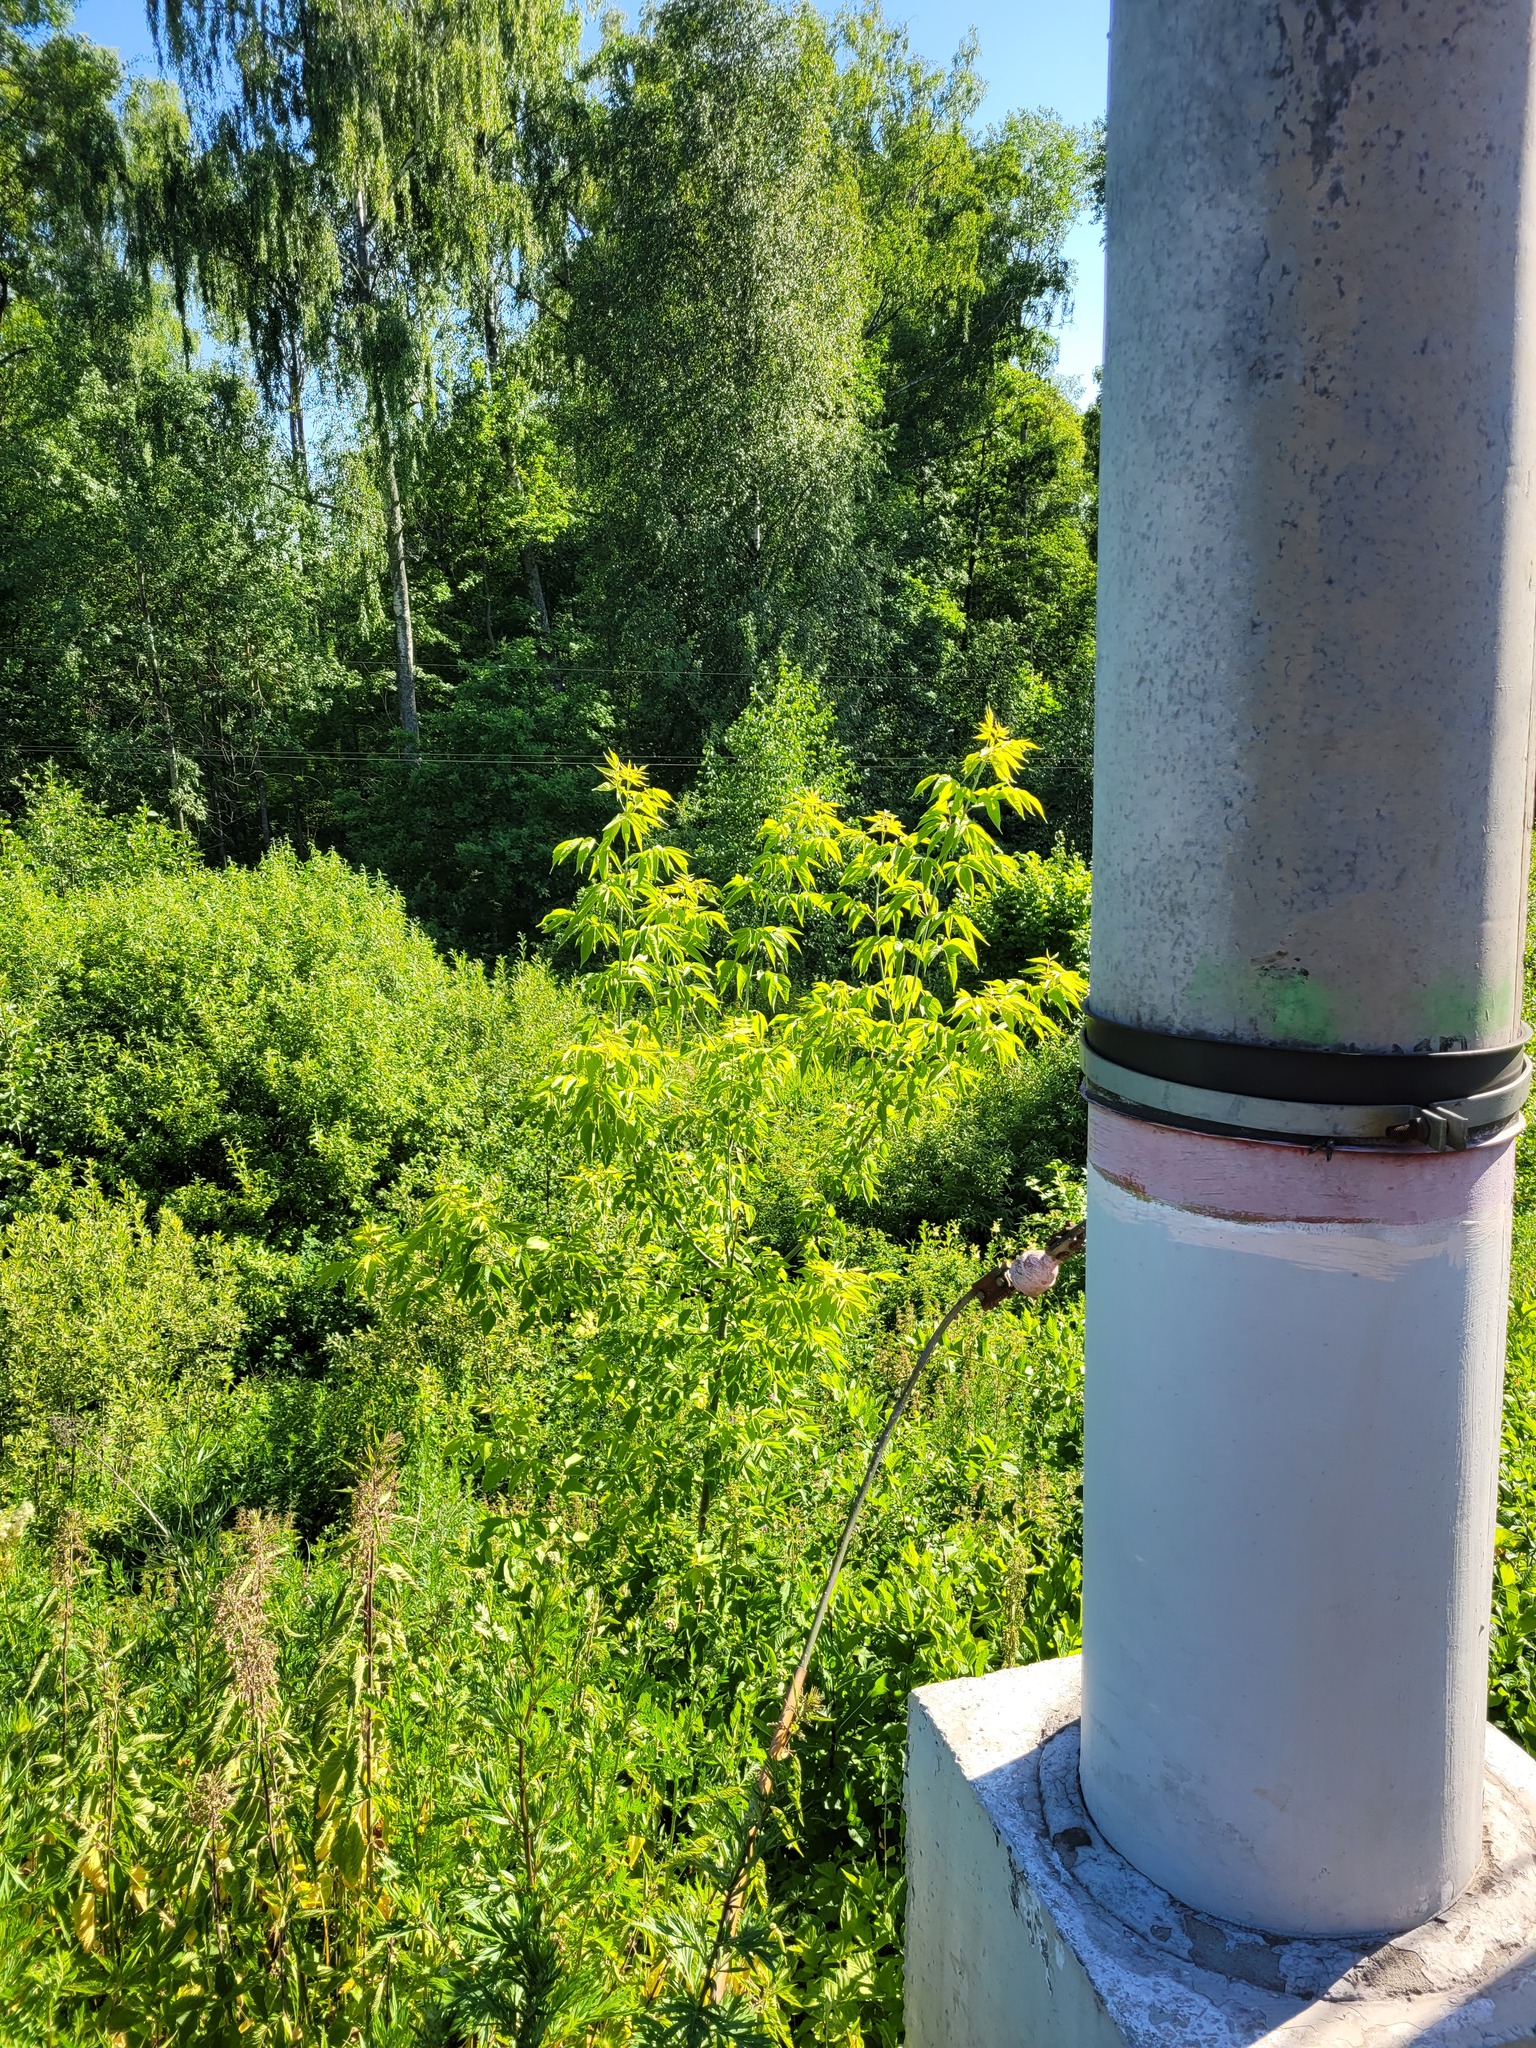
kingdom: Plantae
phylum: Tracheophyta
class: Magnoliopsida
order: Sapindales
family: Sapindaceae
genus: Acer
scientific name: Acer negundo
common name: Ashleaf maple
